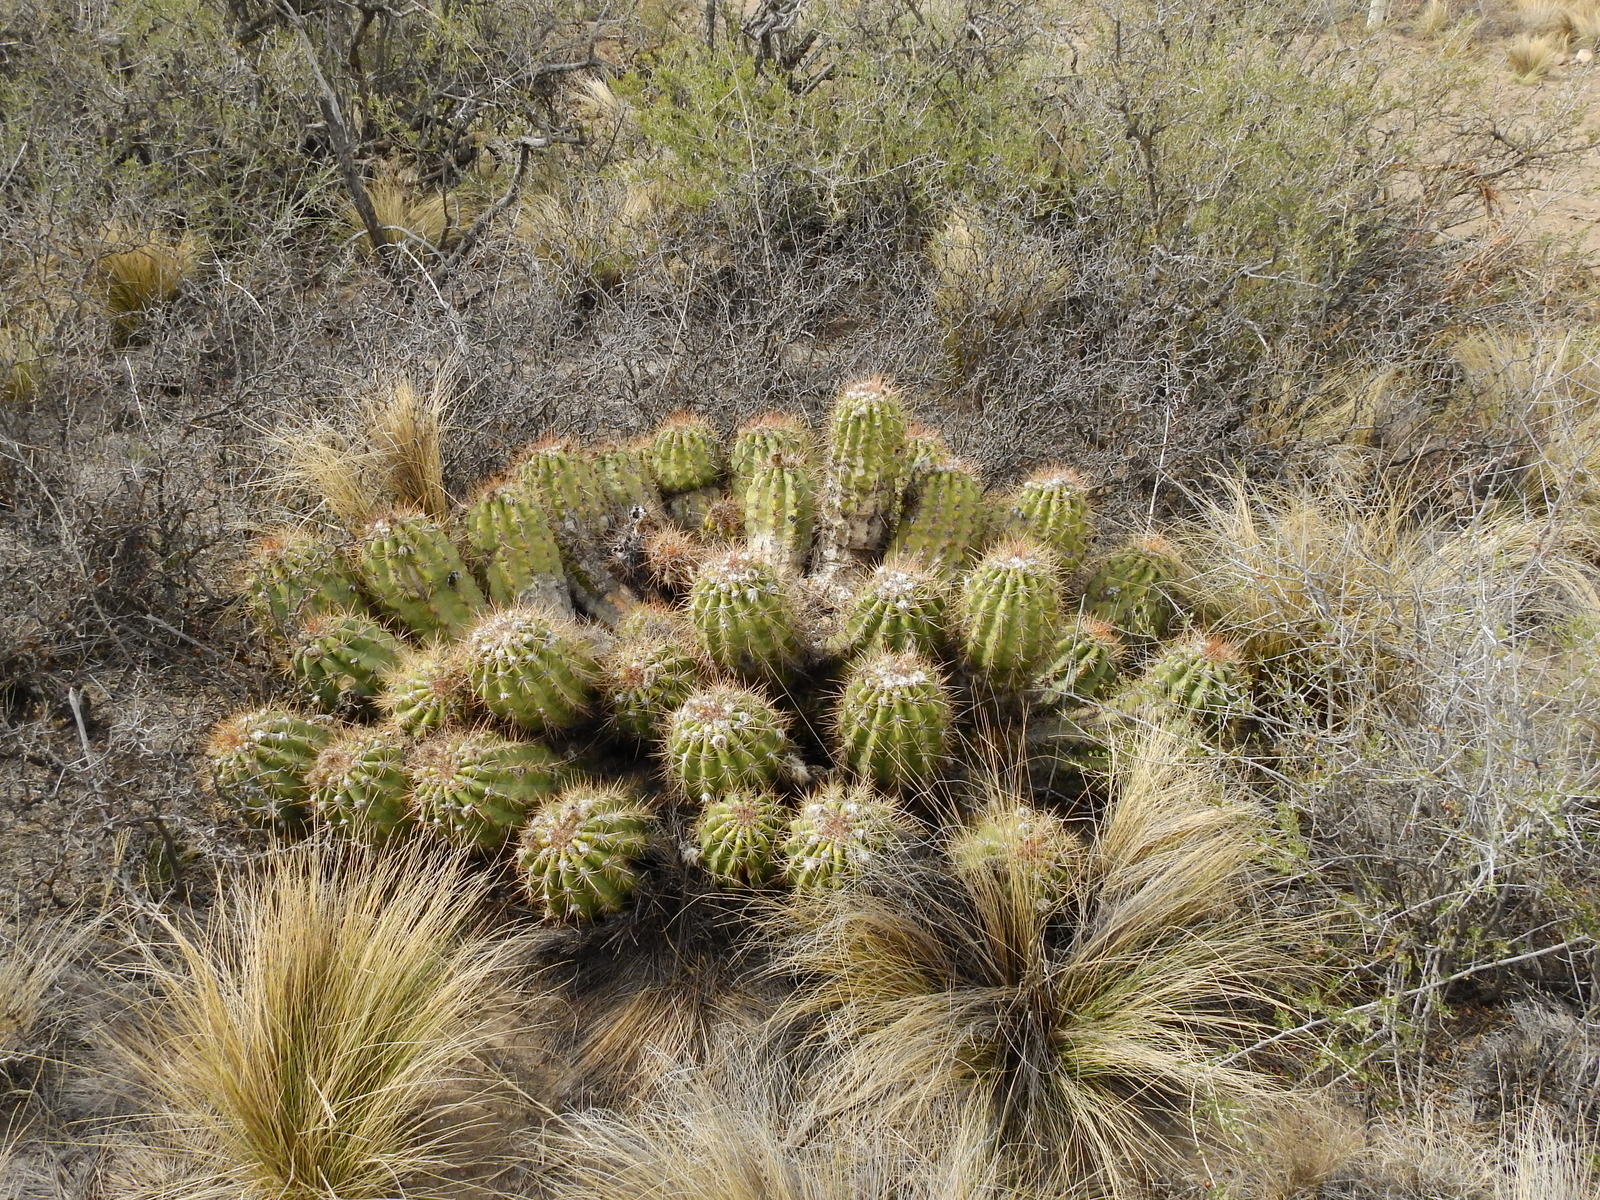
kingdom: Plantae
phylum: Tracheophyta
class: Magnoliopsida
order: Caryophyllales
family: Cactaceae
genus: Soehrensia
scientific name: Soehrensia candicans
